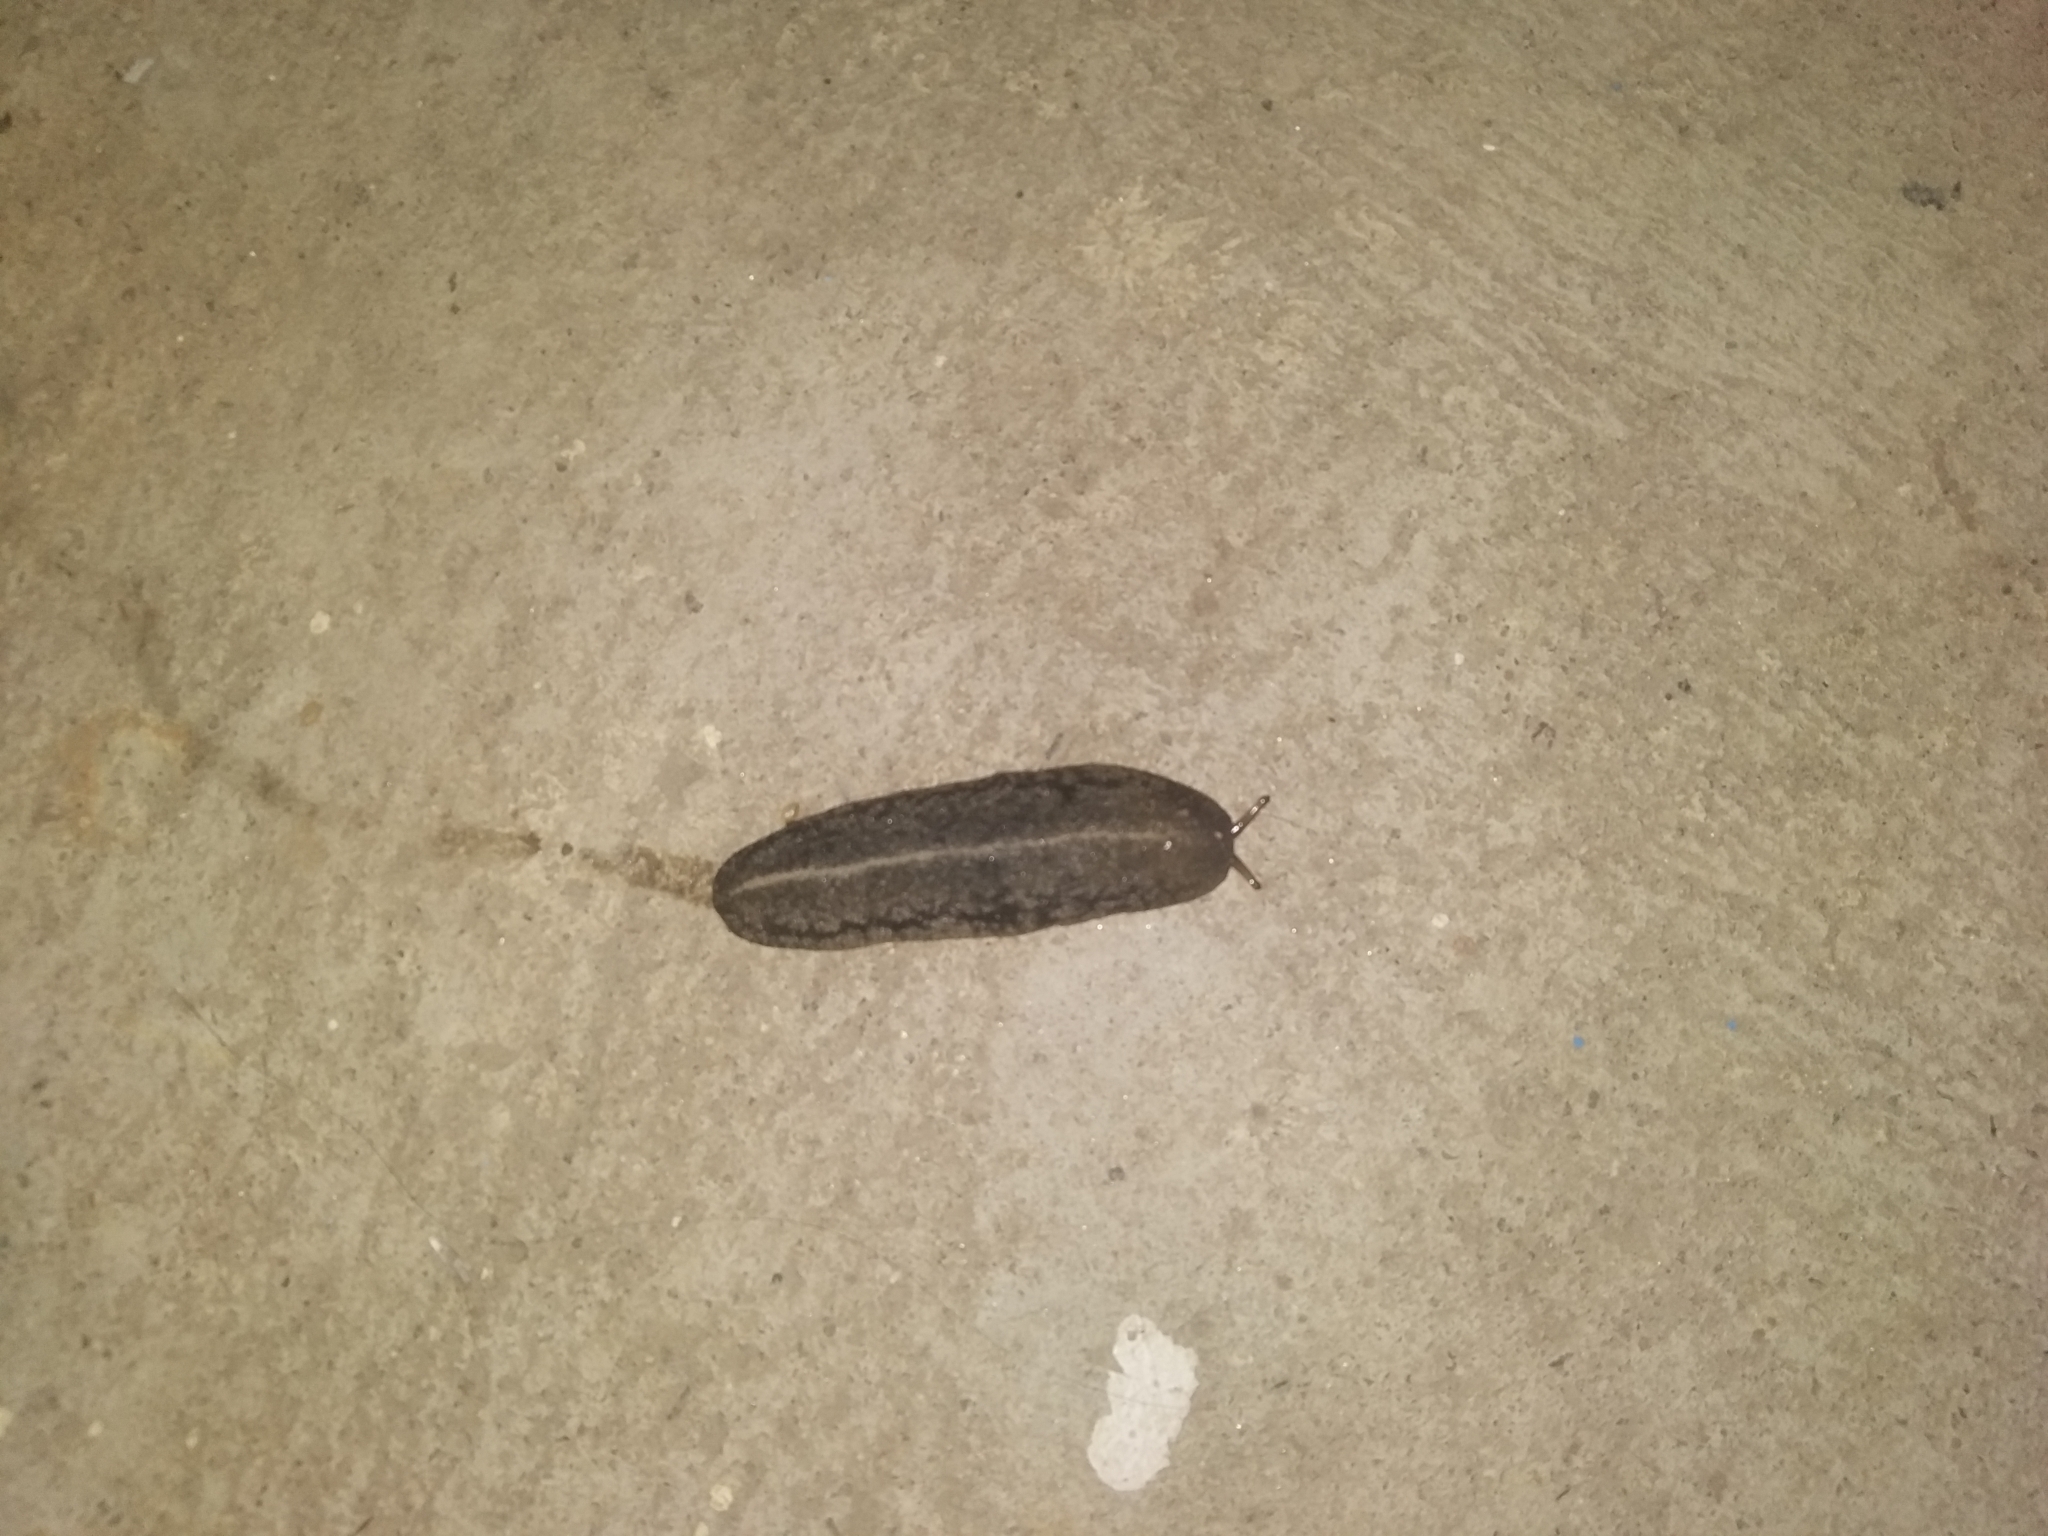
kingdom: Animalia
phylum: Mollusca
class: Gastropoda
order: Systellommatophora
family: Veronicellidae
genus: Laevicaulis
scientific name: Laevicaulis alte
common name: Tropical leatherleaf
